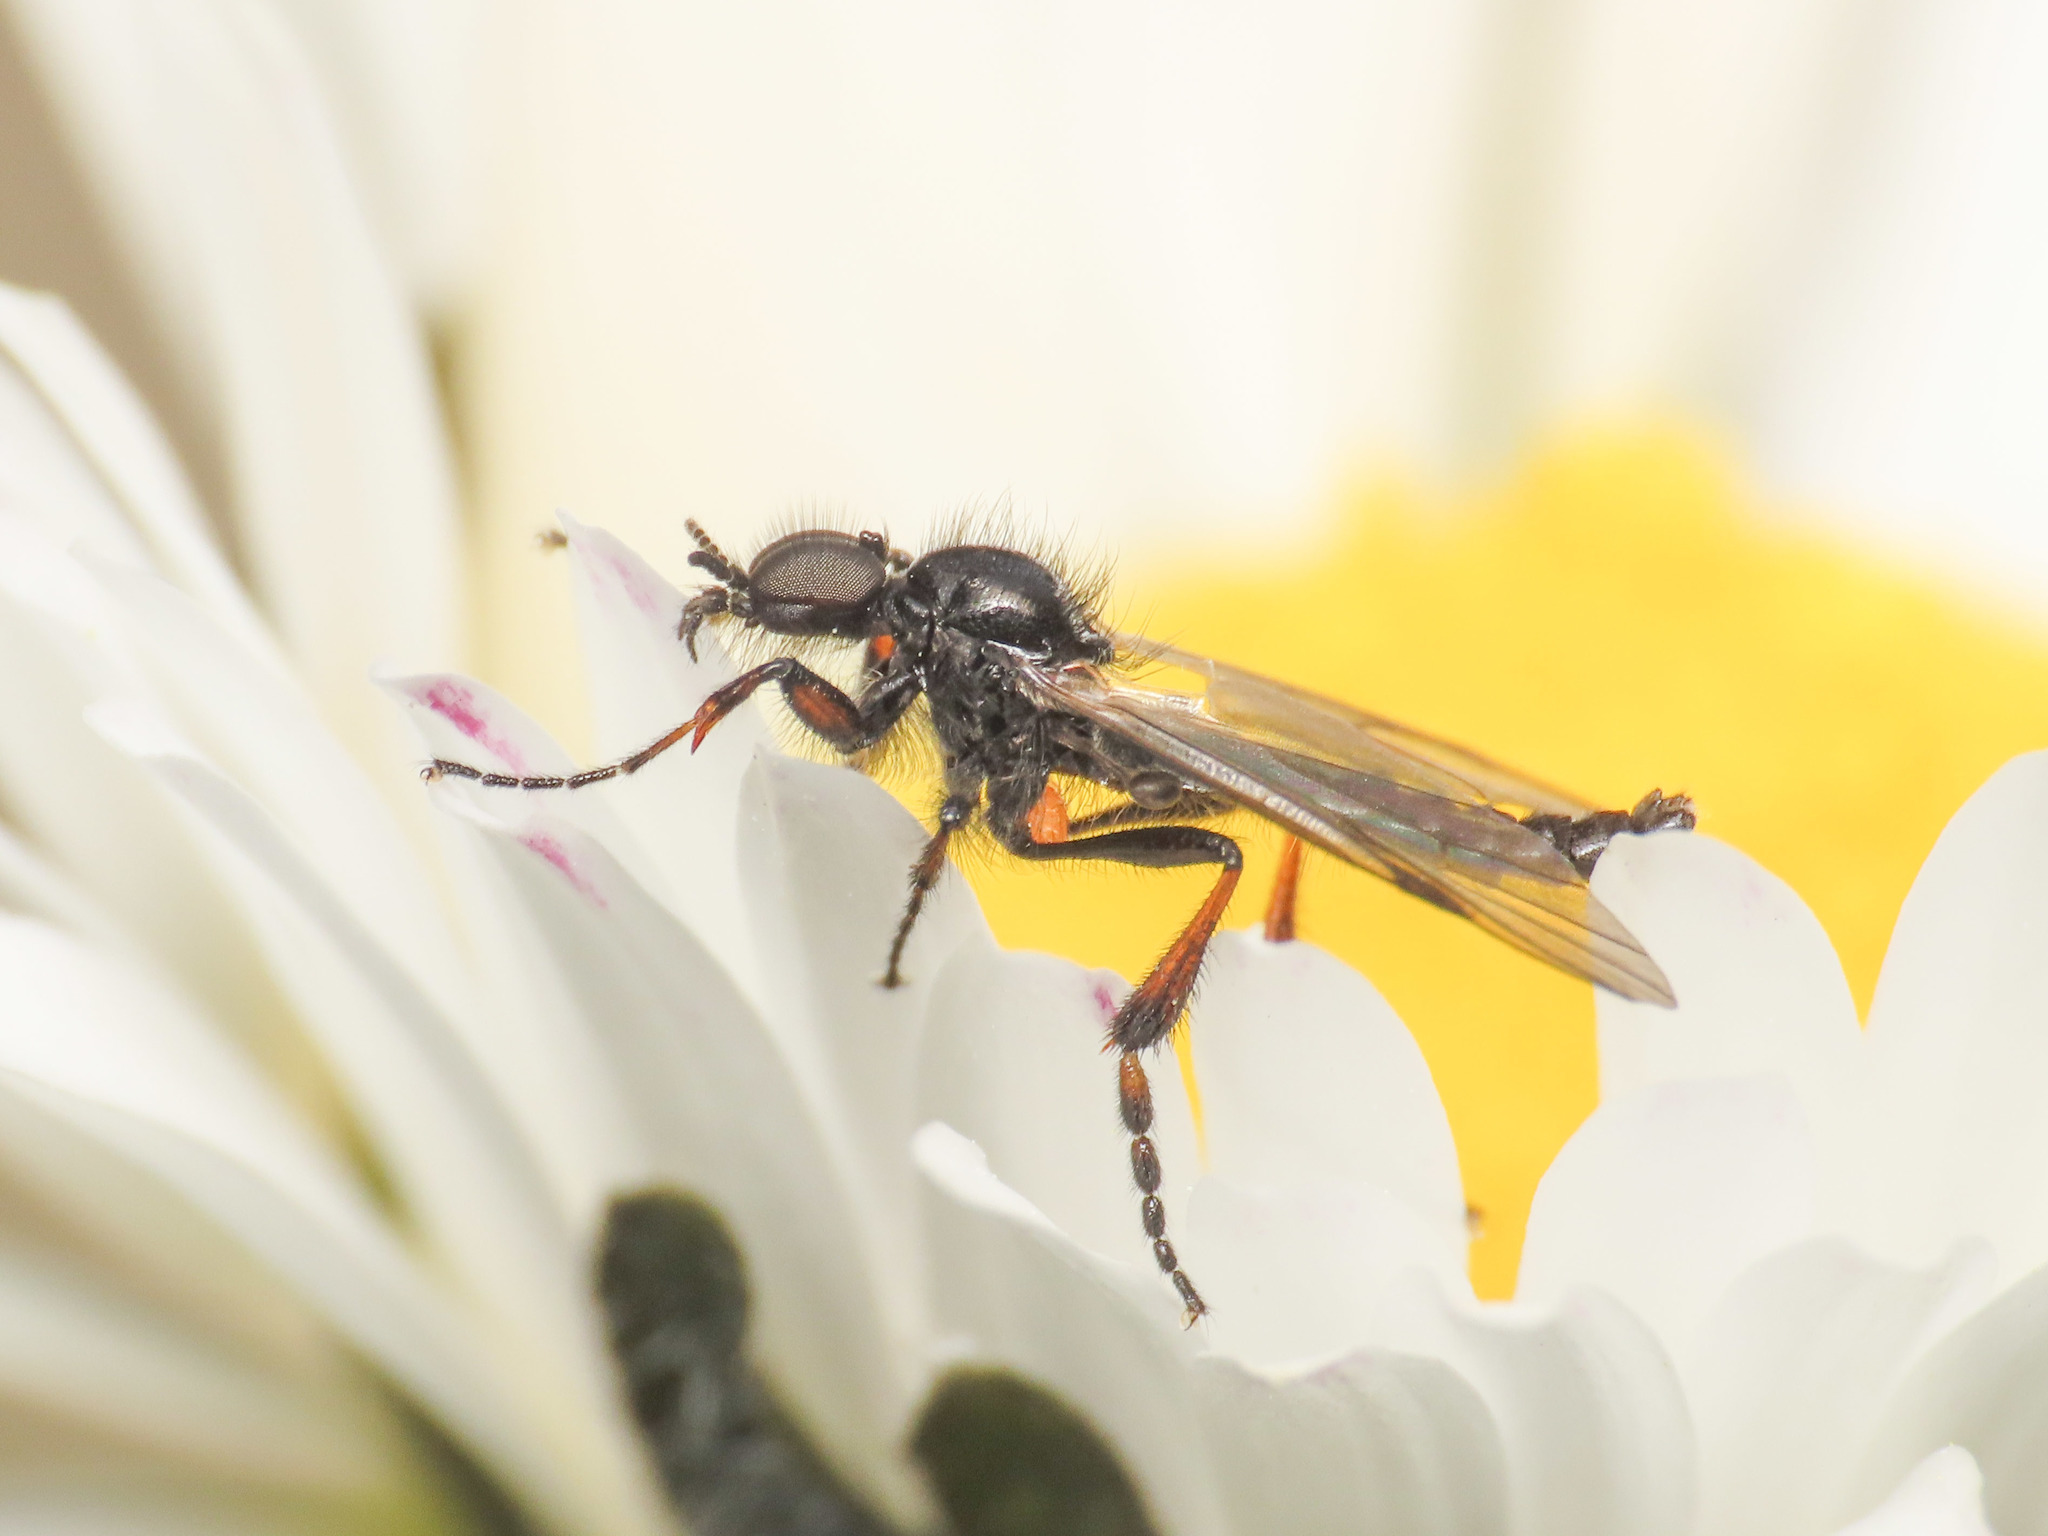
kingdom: Animalia
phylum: Arthropoda
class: Insecta
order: Diptera
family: Bibionidae
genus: Bibio
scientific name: Bibio femoralis
